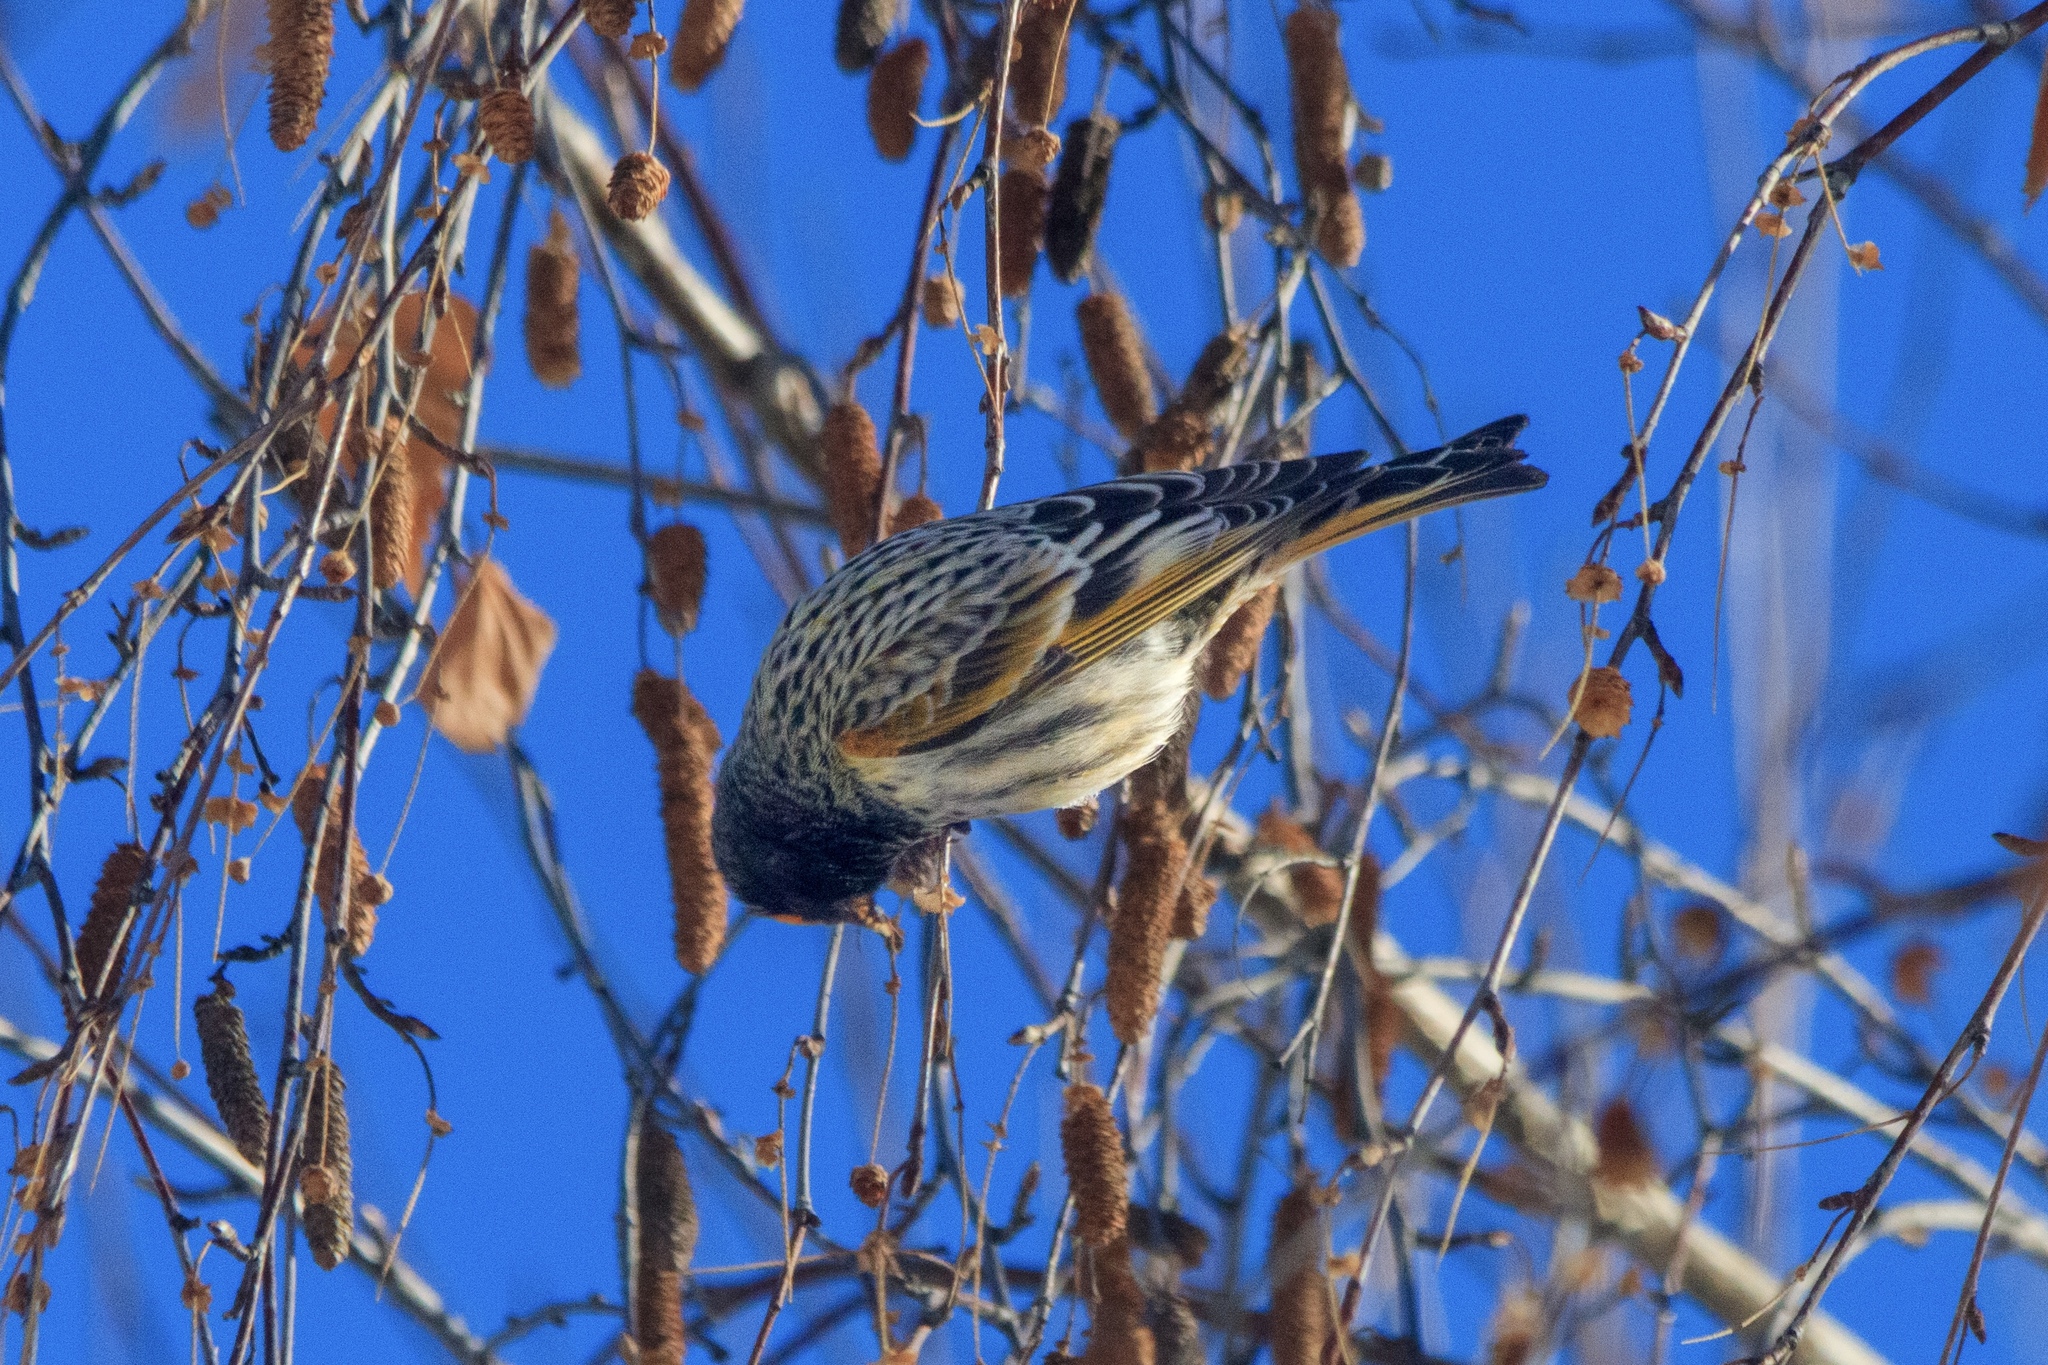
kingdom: Animalia
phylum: Chordata
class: Aves
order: Passeriformes
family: Fringillidae
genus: Serinus
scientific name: Serinus pusillus
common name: Red-fronted serin
